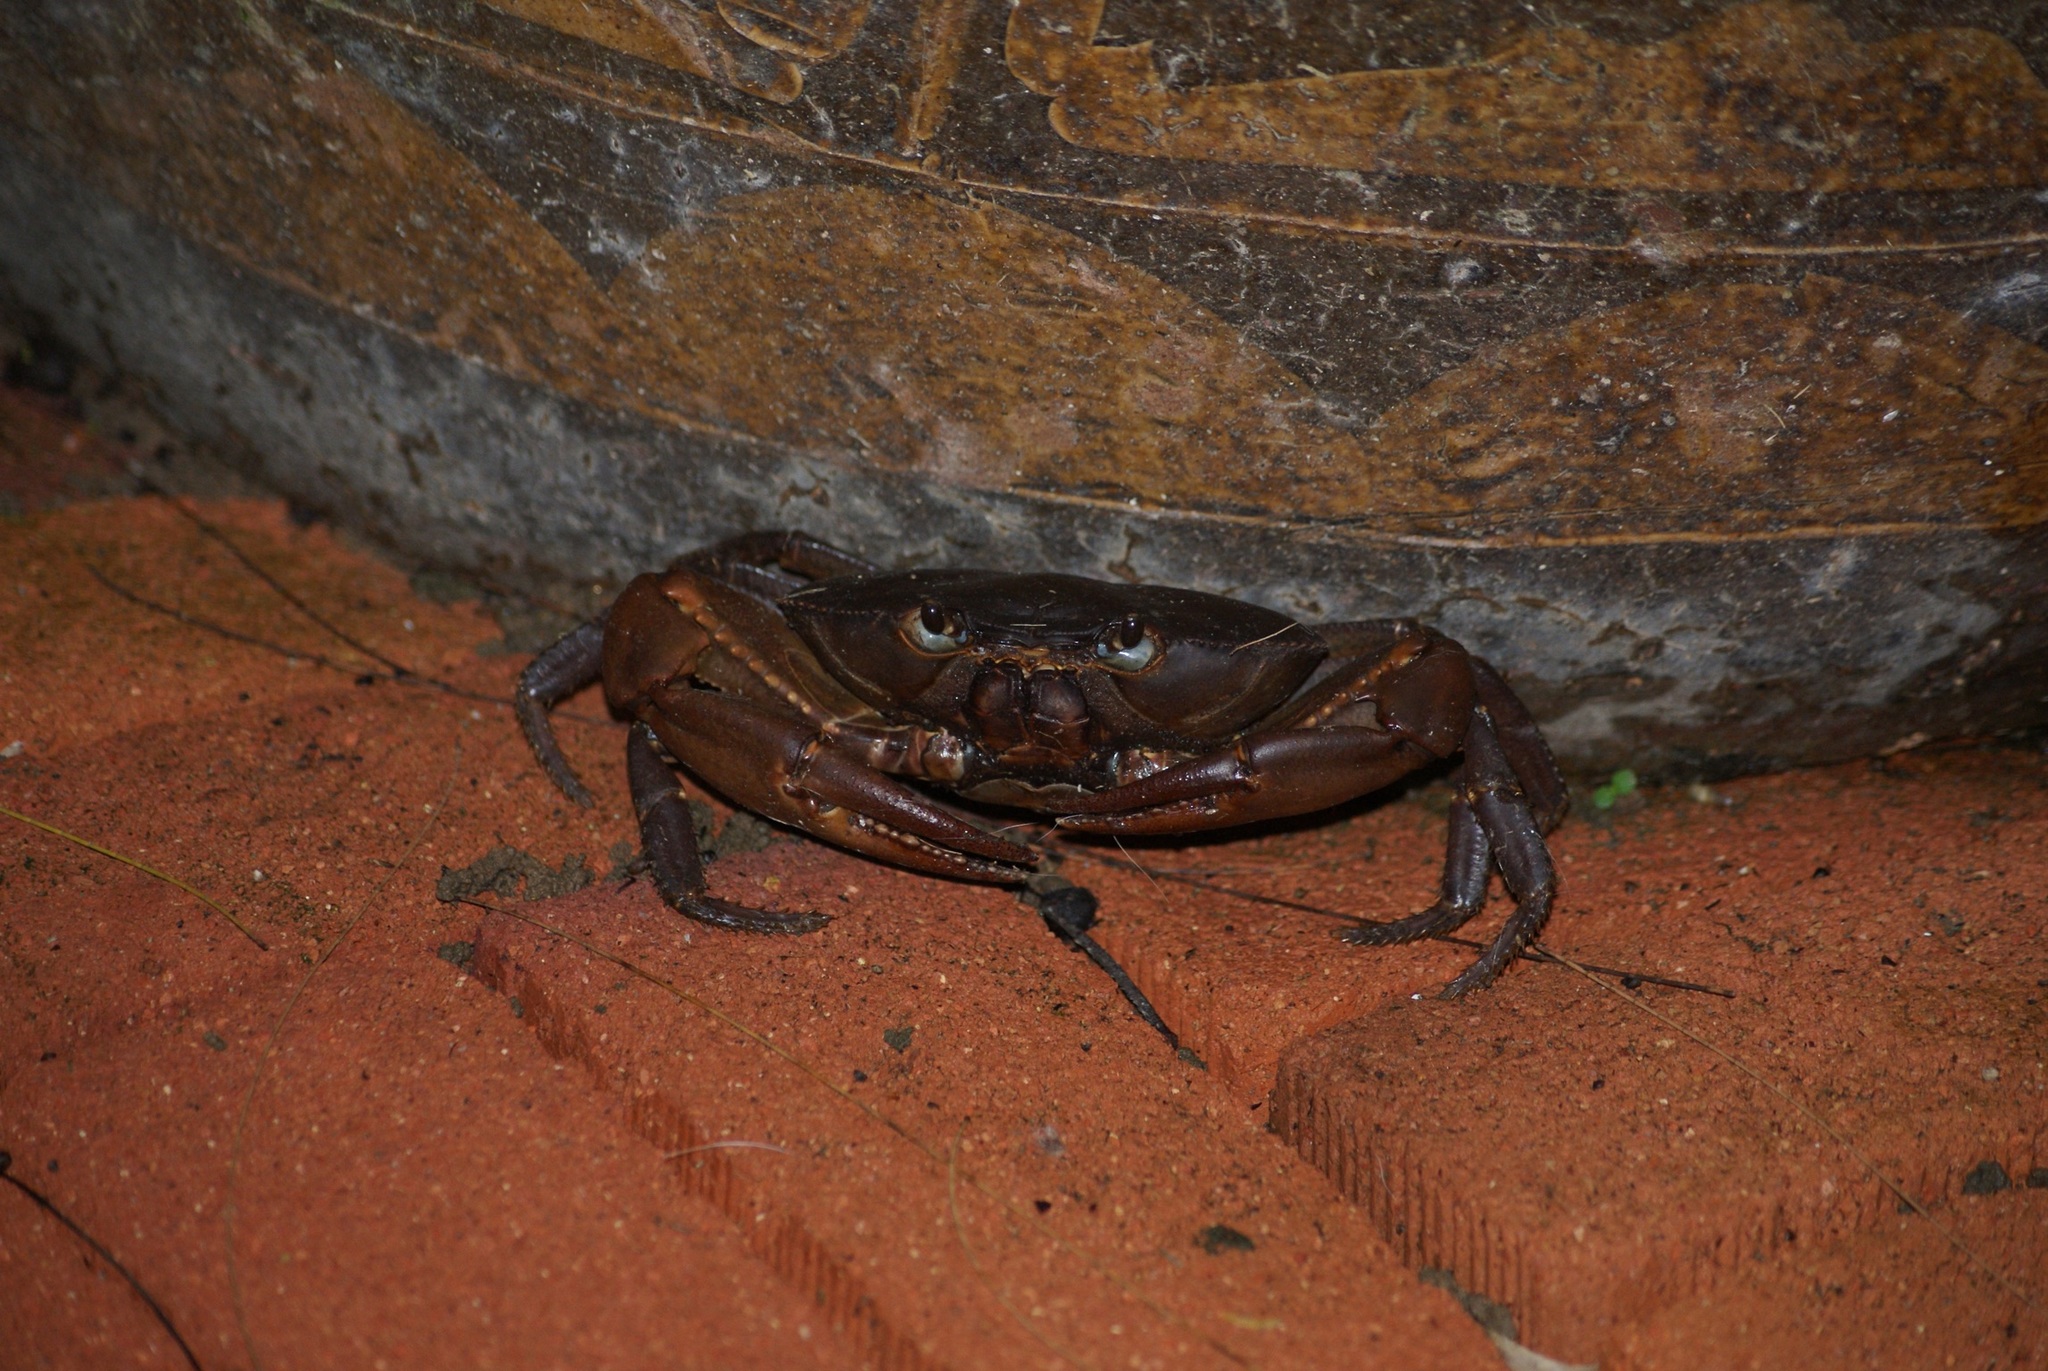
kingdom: Animalia
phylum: Arthropoda
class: Malacostraca
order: Decapoda
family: Epiloboceridae
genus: Epilobocera
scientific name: Epilobocera sinuatifrons
